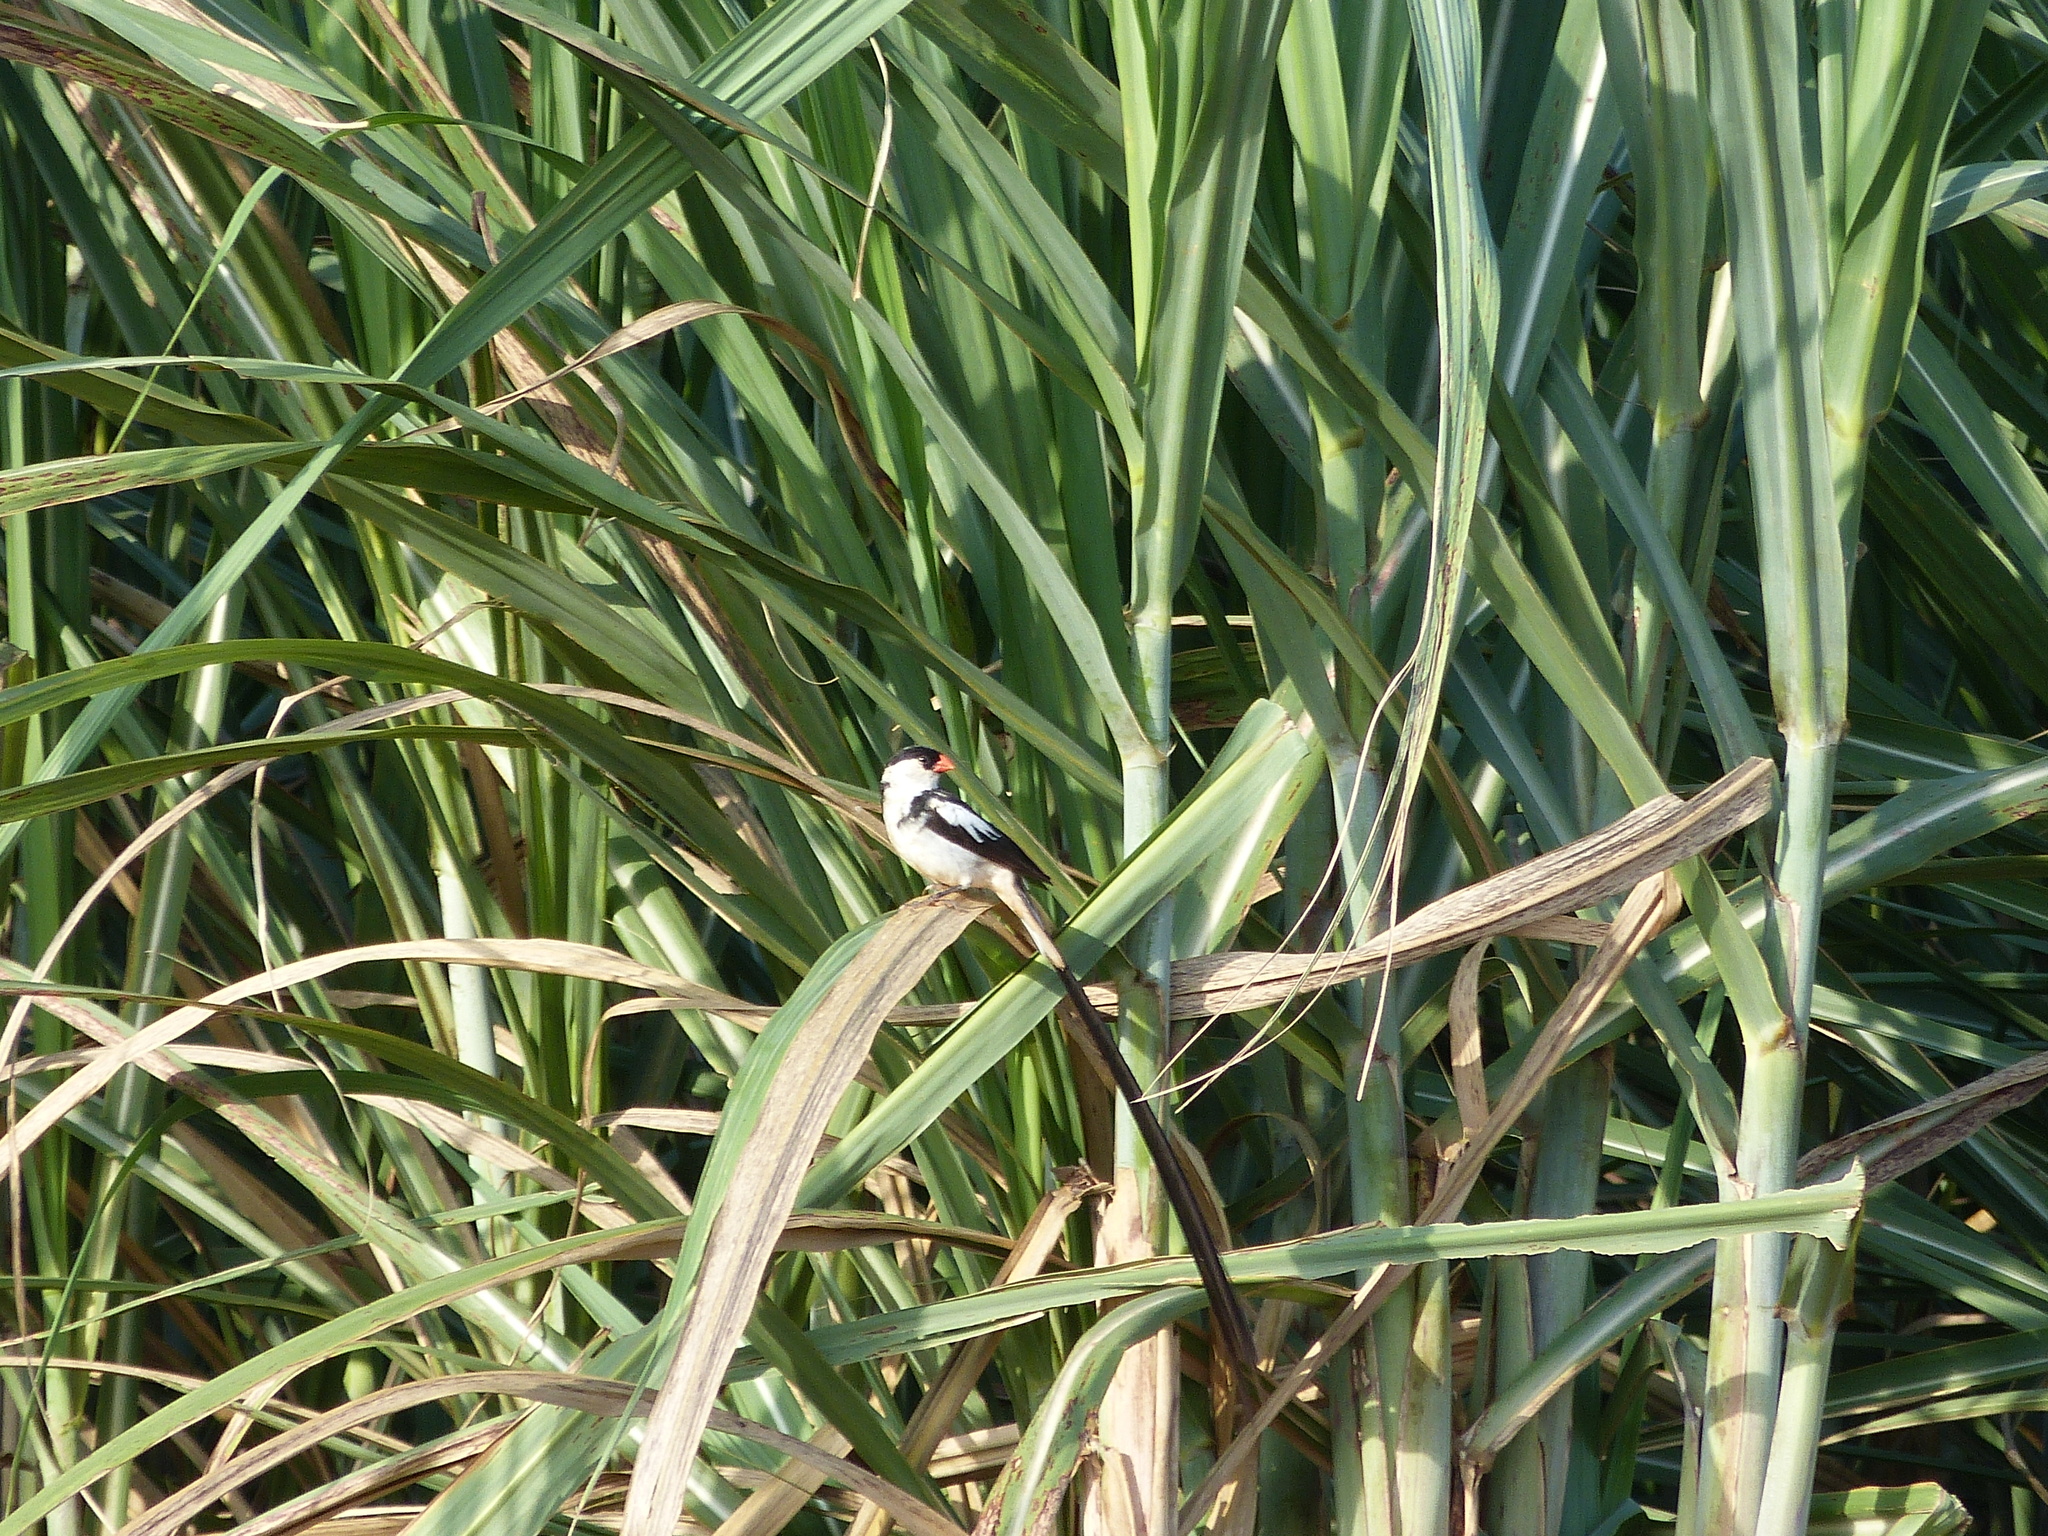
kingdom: Animalia
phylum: Chordata
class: Aves
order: Passeriformes
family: Viduidae
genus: Vidua
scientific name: Vidua macroura
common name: Pin-tailed whydah
